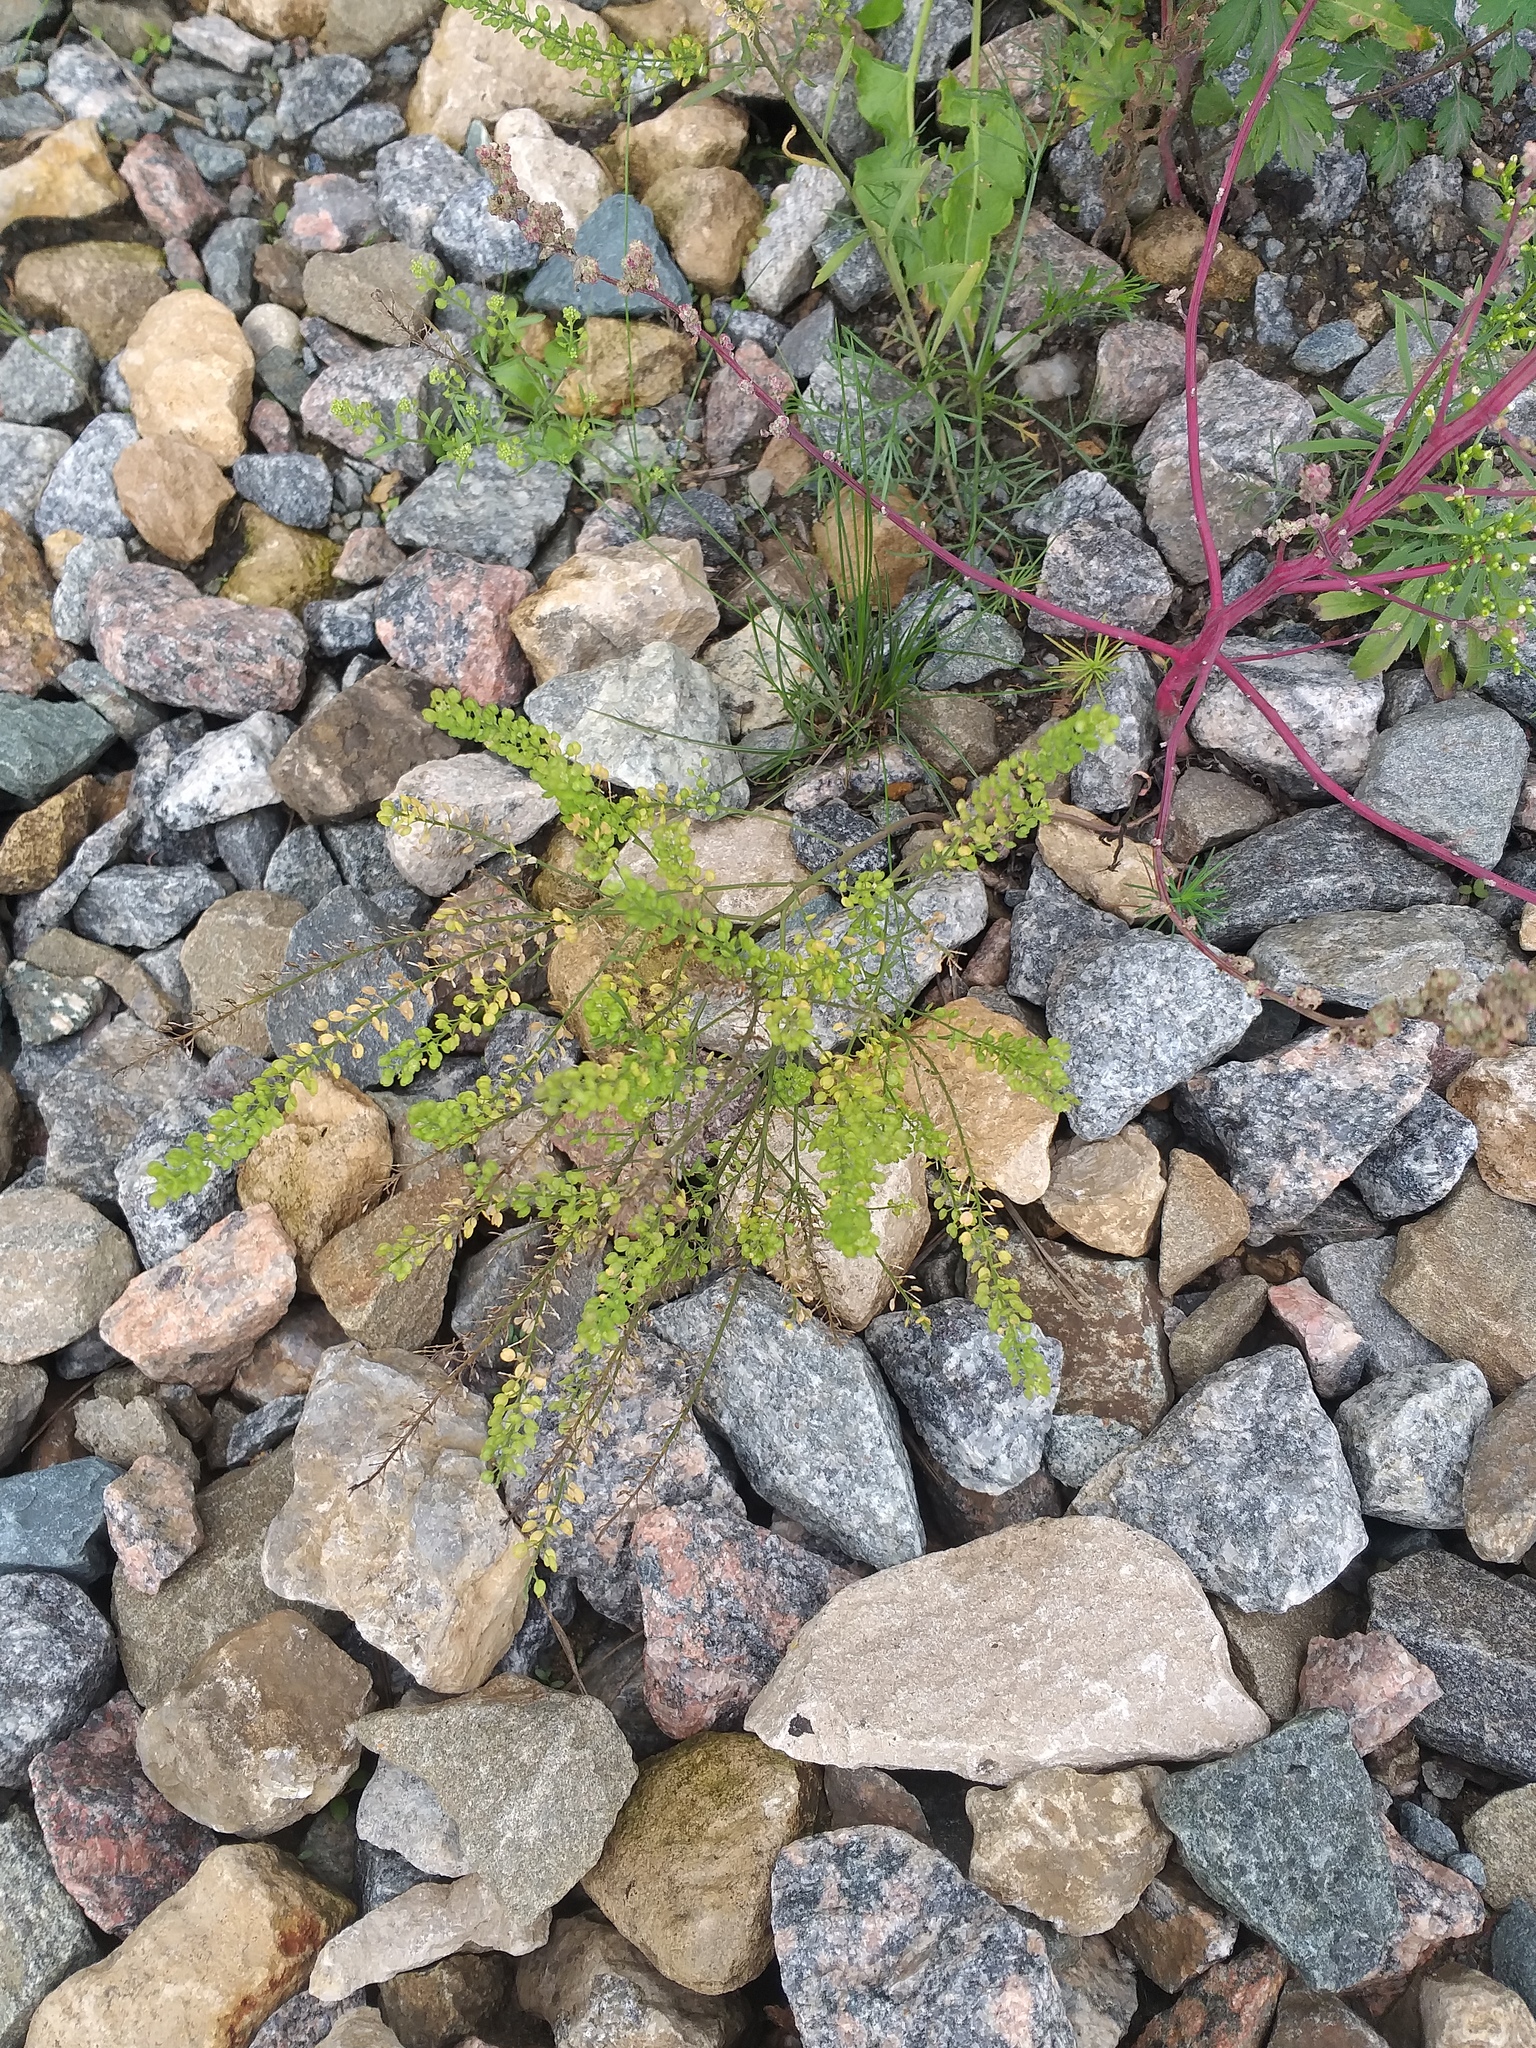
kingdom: Plantae
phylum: Tracheophyta
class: Magnoliopsida
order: Brassicales
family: Brassicaceae
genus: Lepidium
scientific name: Lepidium densiflorum
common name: Miner's pepperwort
